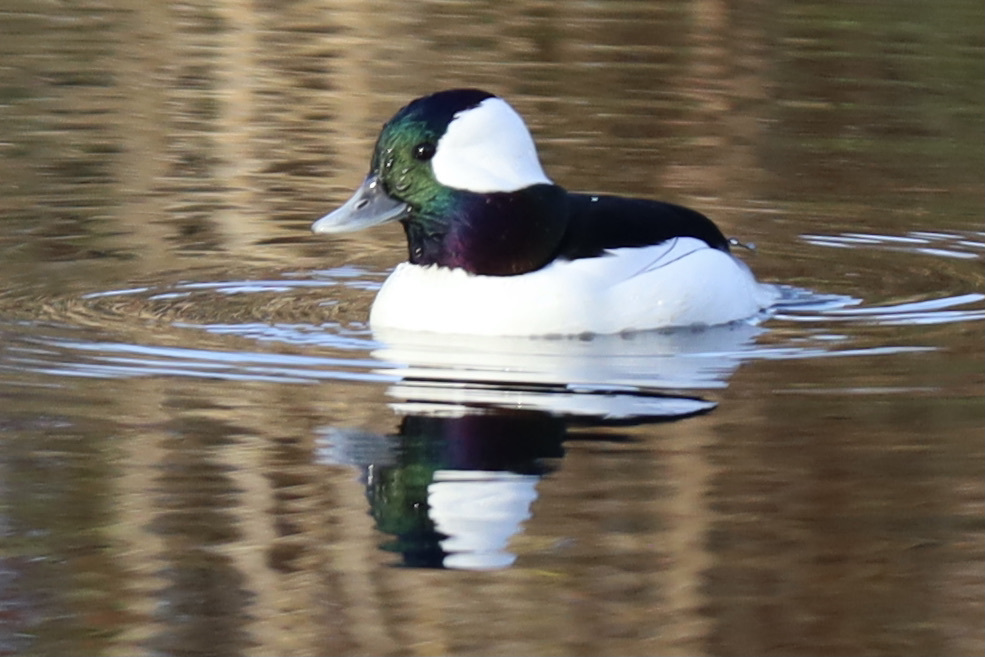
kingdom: Animalia
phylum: Chordata
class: Aves
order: Anseriformes
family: Anatidae
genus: Bucephala
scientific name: Bucephala albeola
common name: Bufflehead
